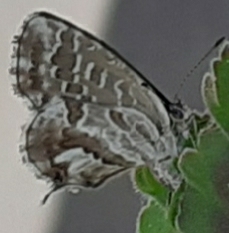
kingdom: Animalia
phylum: Arthropoda
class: Insecta
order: Lepidoptera
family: Lycaenidae
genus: Cacyreus
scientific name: Cacyreus marshalli
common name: Geranium bronze
